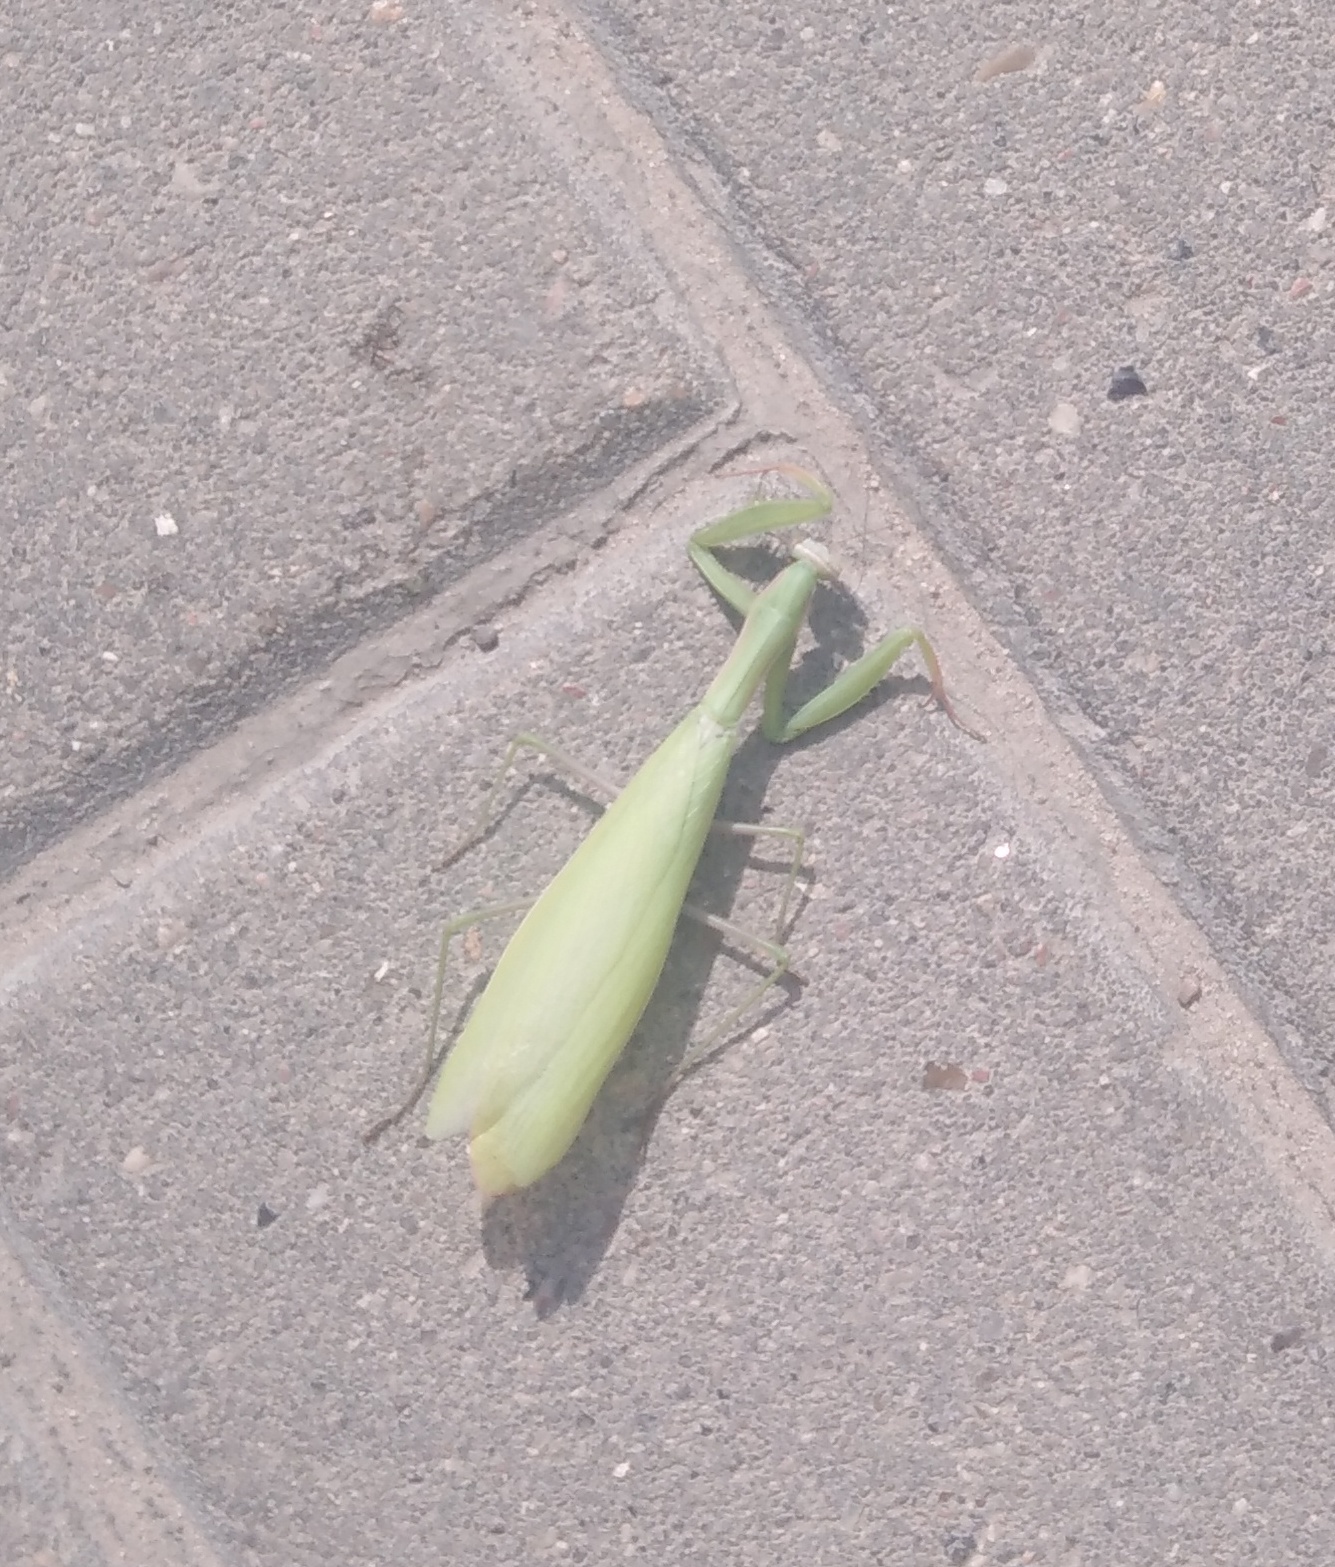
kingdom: Animalia
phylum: Arthropoda
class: Insecta
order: Mantodea
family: Mantidae
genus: Mantis
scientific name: Mantis religiosa
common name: Praying mantis
